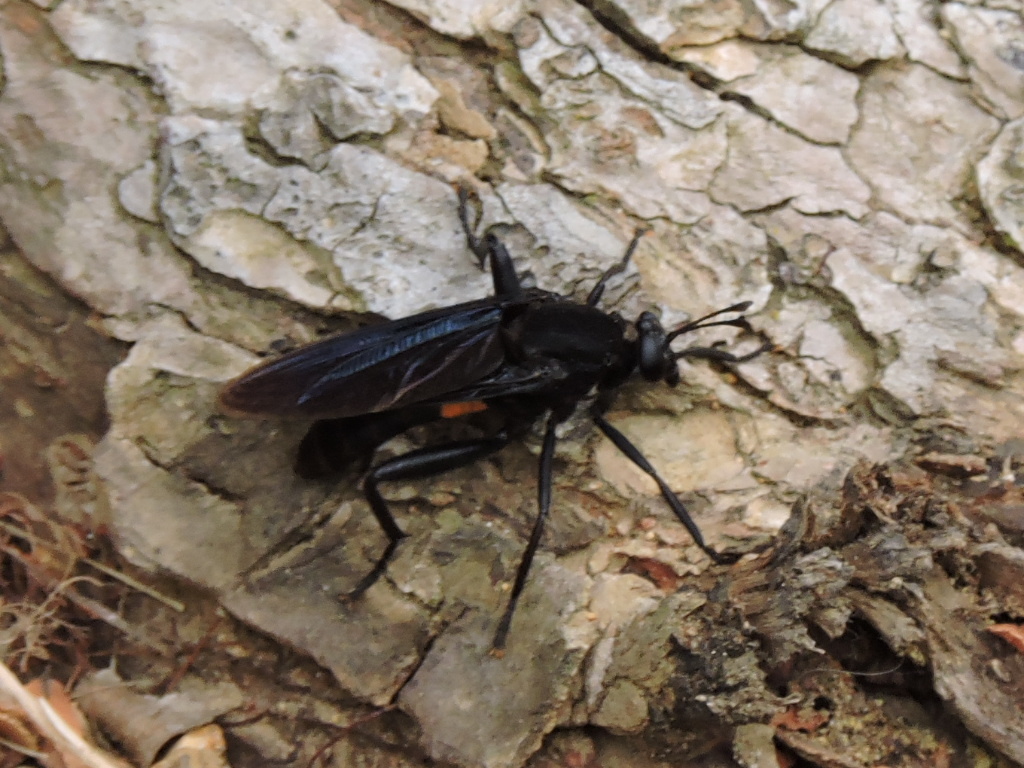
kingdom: Animalia
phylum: Arthropoda
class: Insecta
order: Diptera
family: Mydidae
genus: Mydas
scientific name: Mydas clavatus
